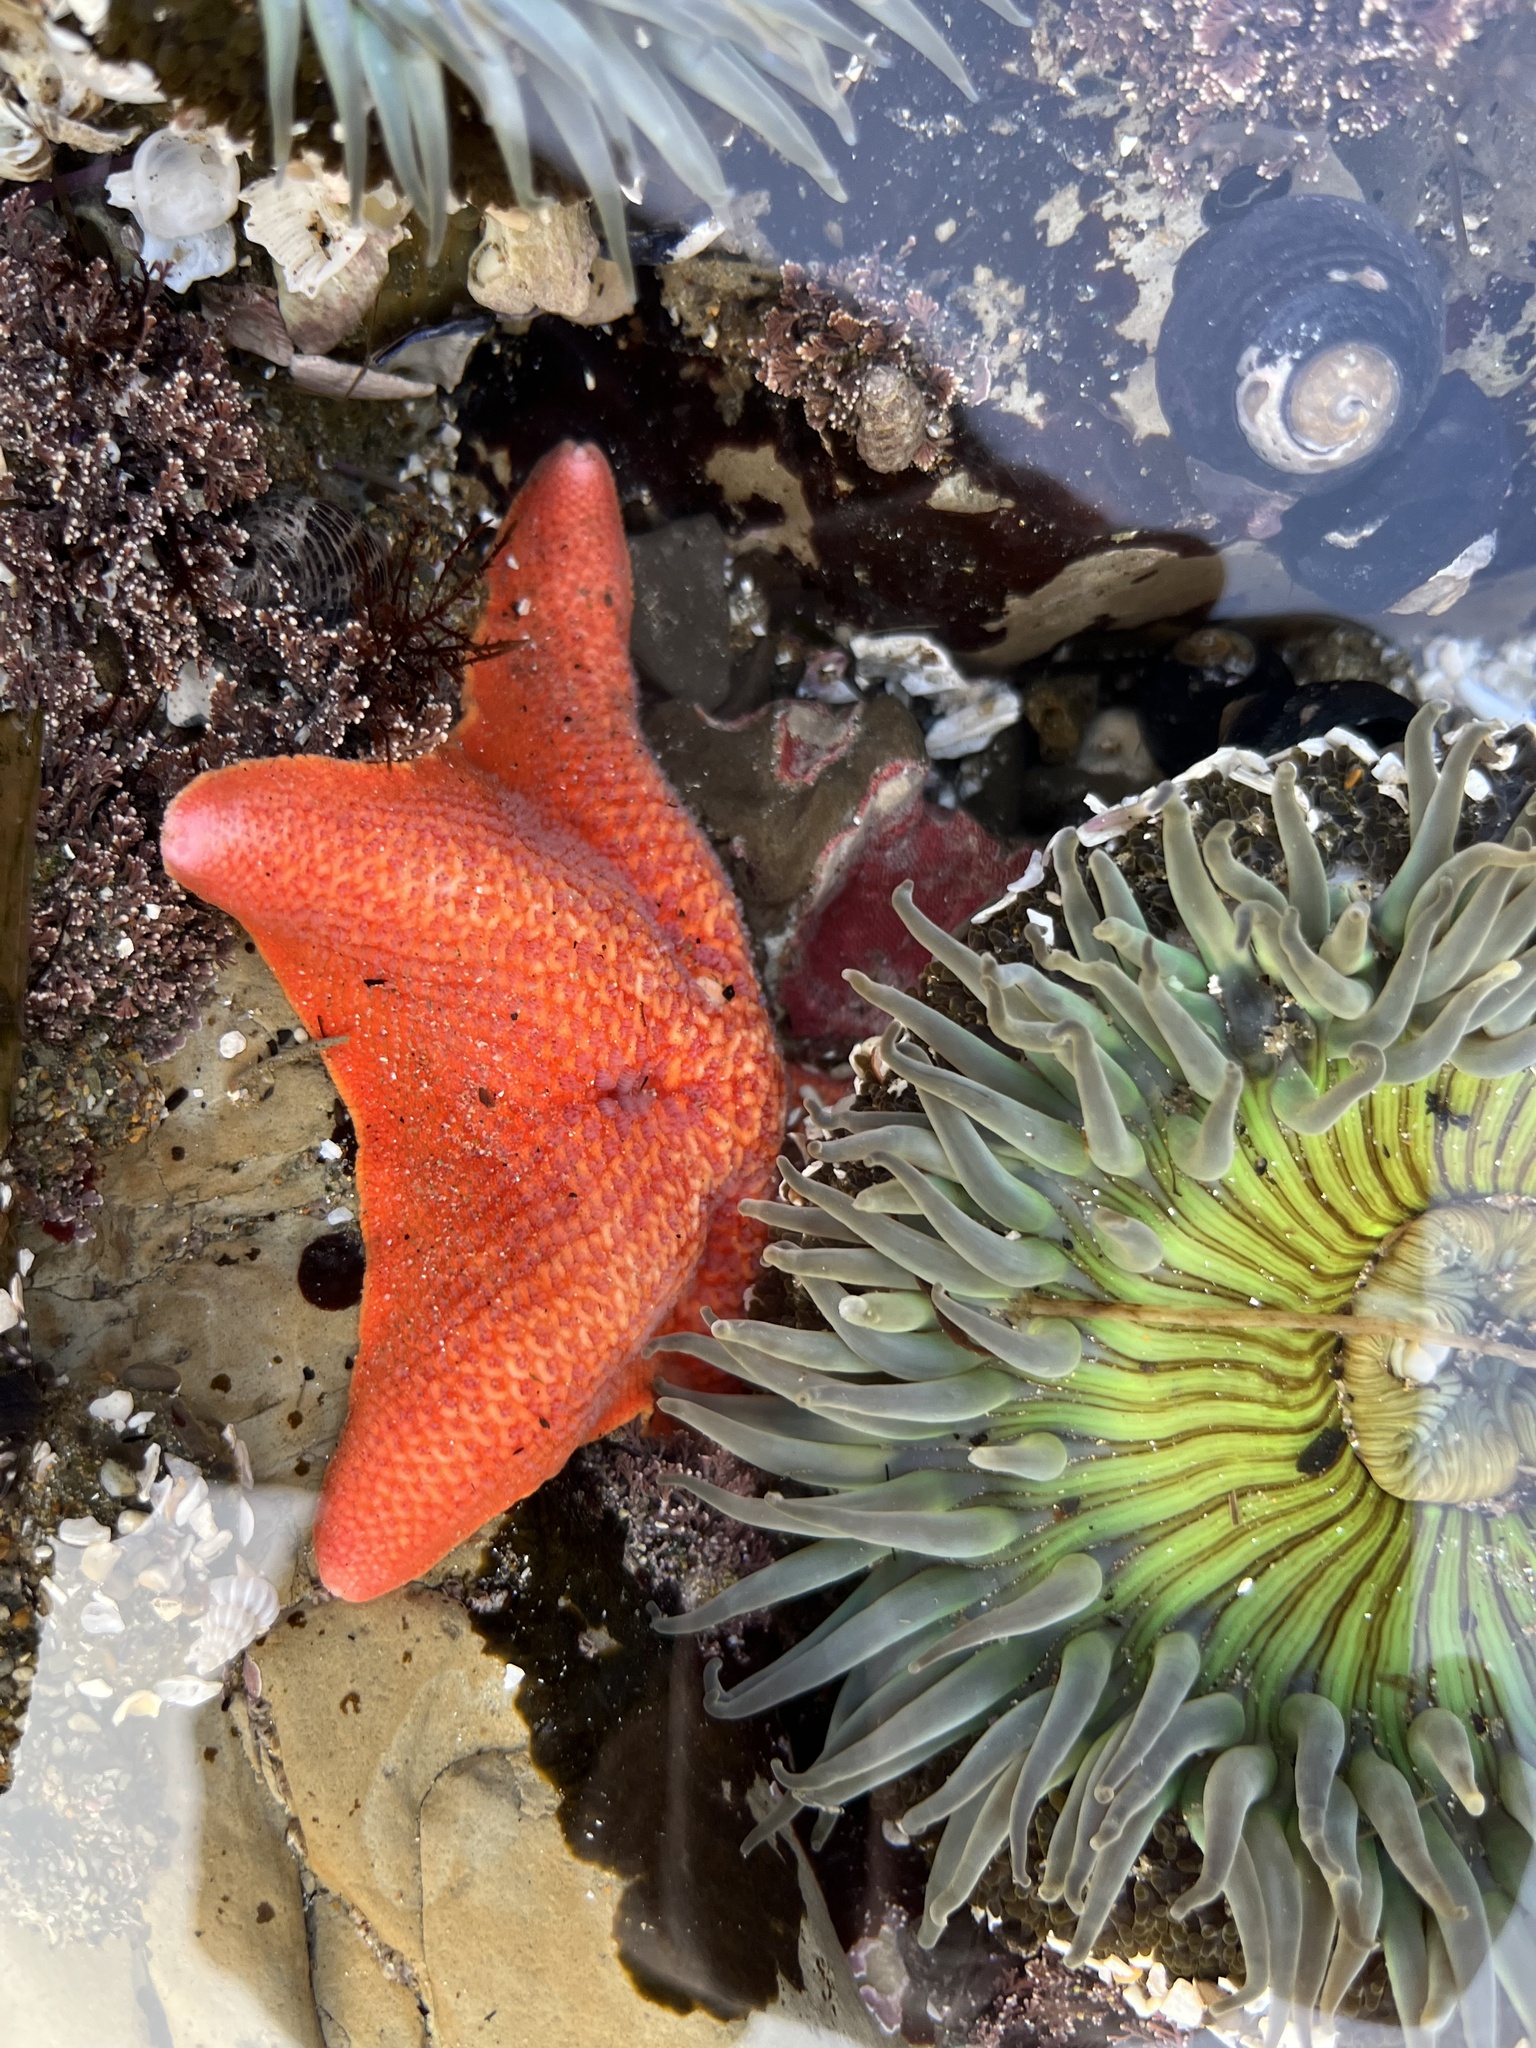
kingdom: Animalia
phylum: Echinodermata
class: Asteroidea
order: Valvatida
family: Asterinidae
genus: Patiria
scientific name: Patiria miniata
